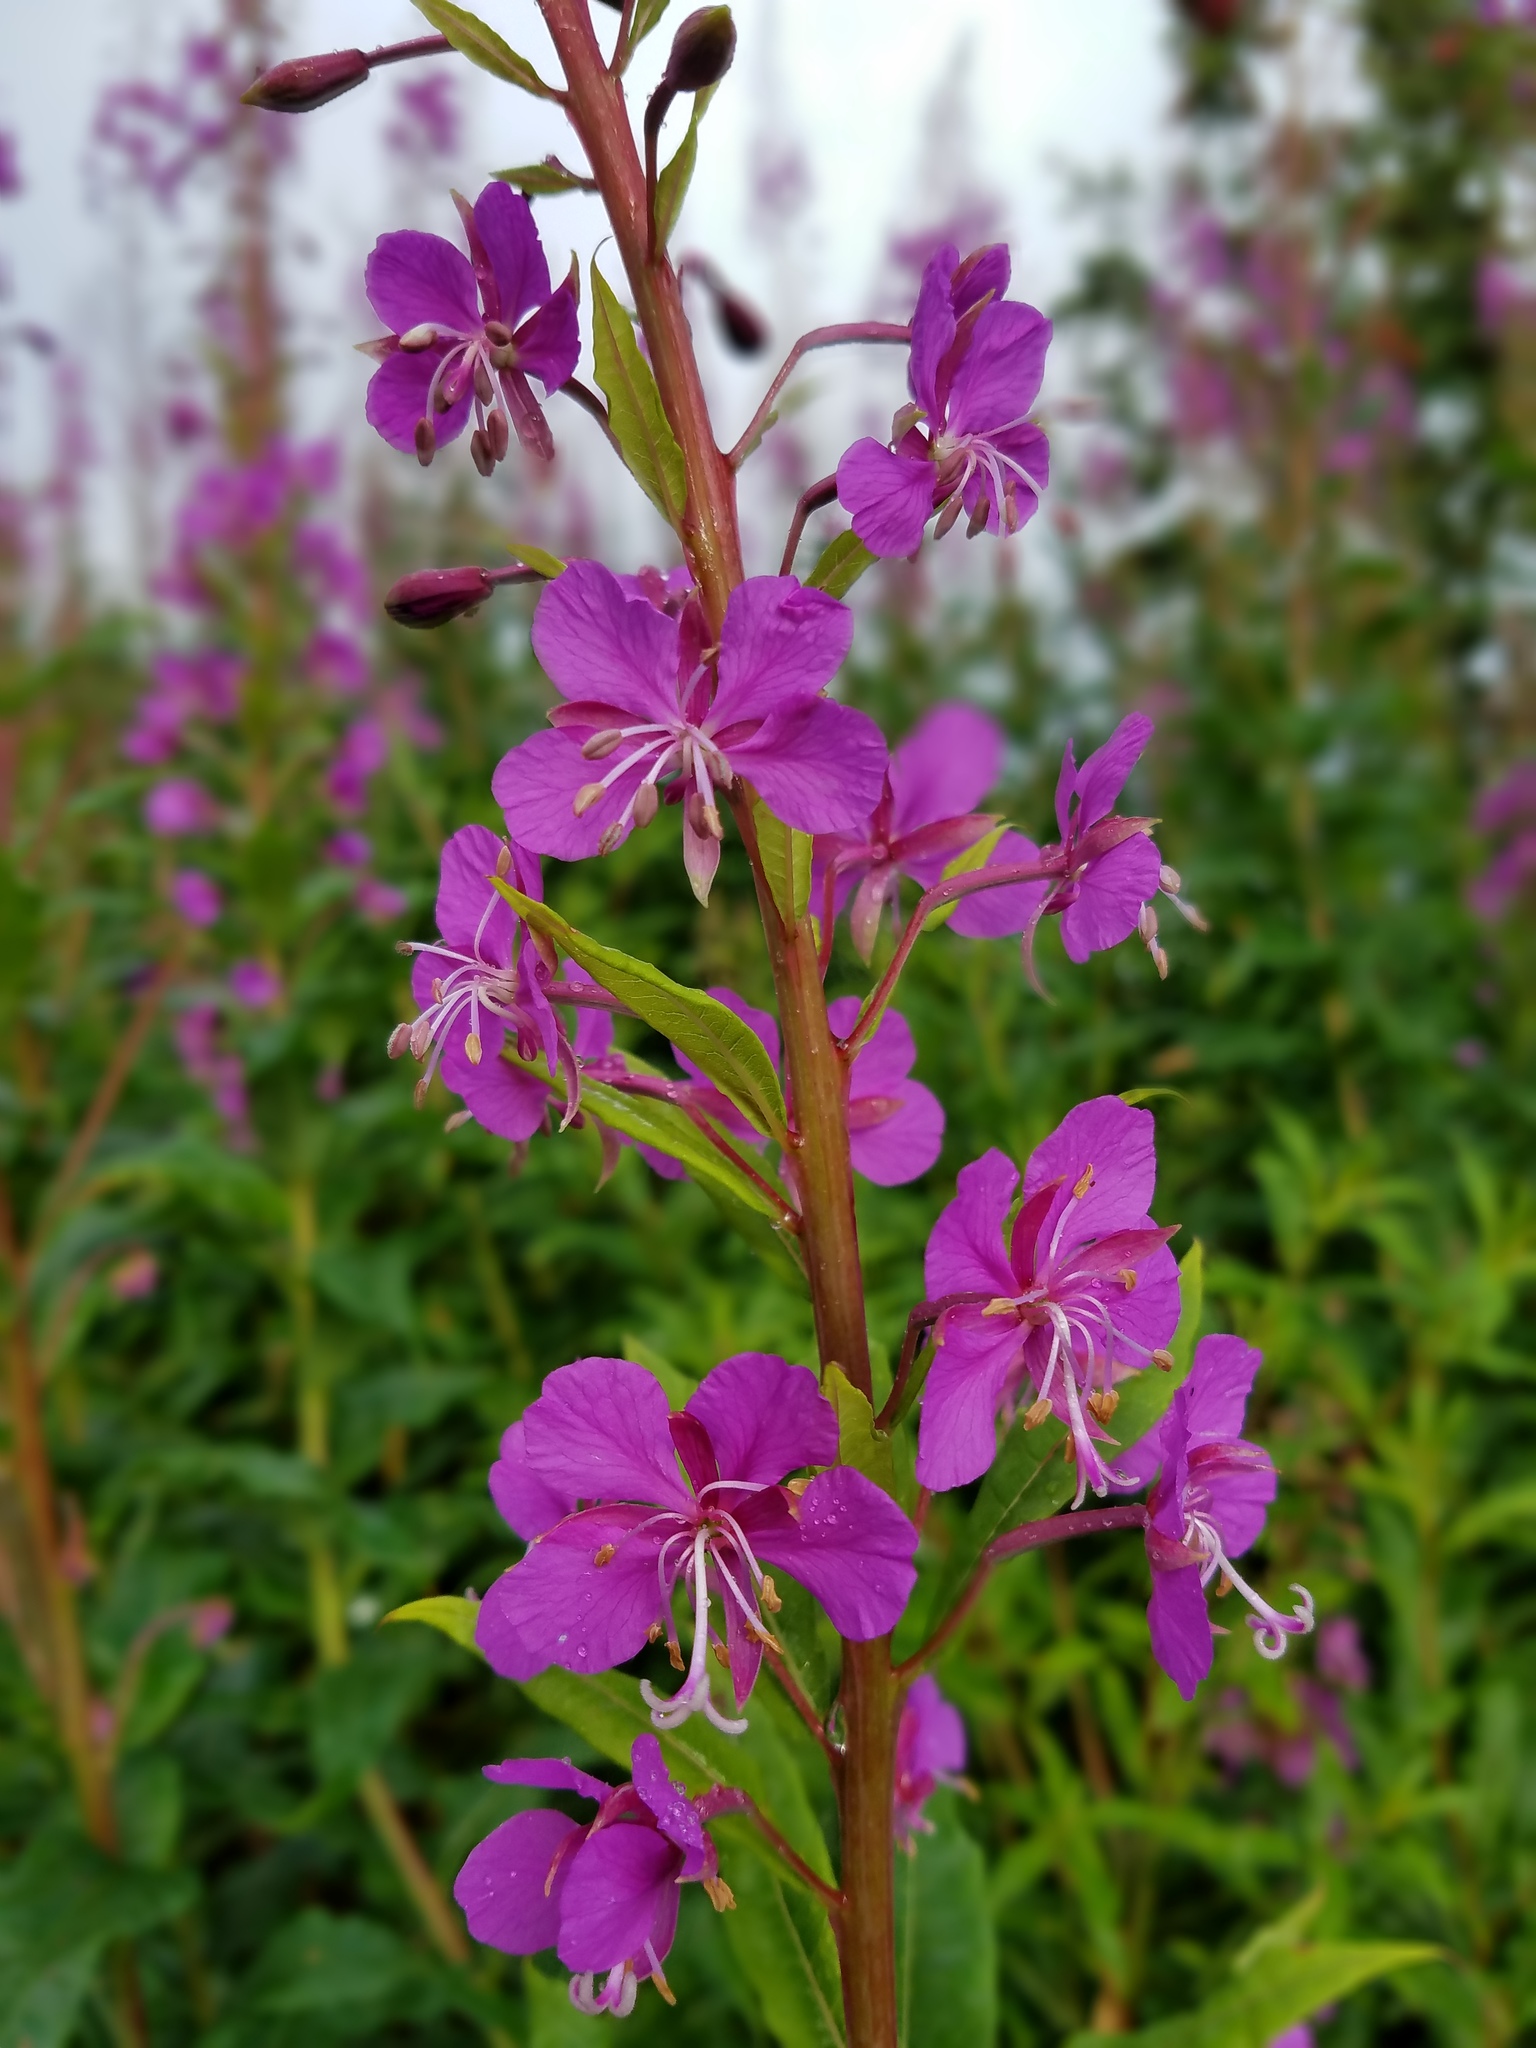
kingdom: Plantae
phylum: Tracheophyta
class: Magnoliopsida
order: Myrtales
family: Onagraceae
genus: Chamaenerion
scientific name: Chamaenerion angustifolium
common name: Fireweed
